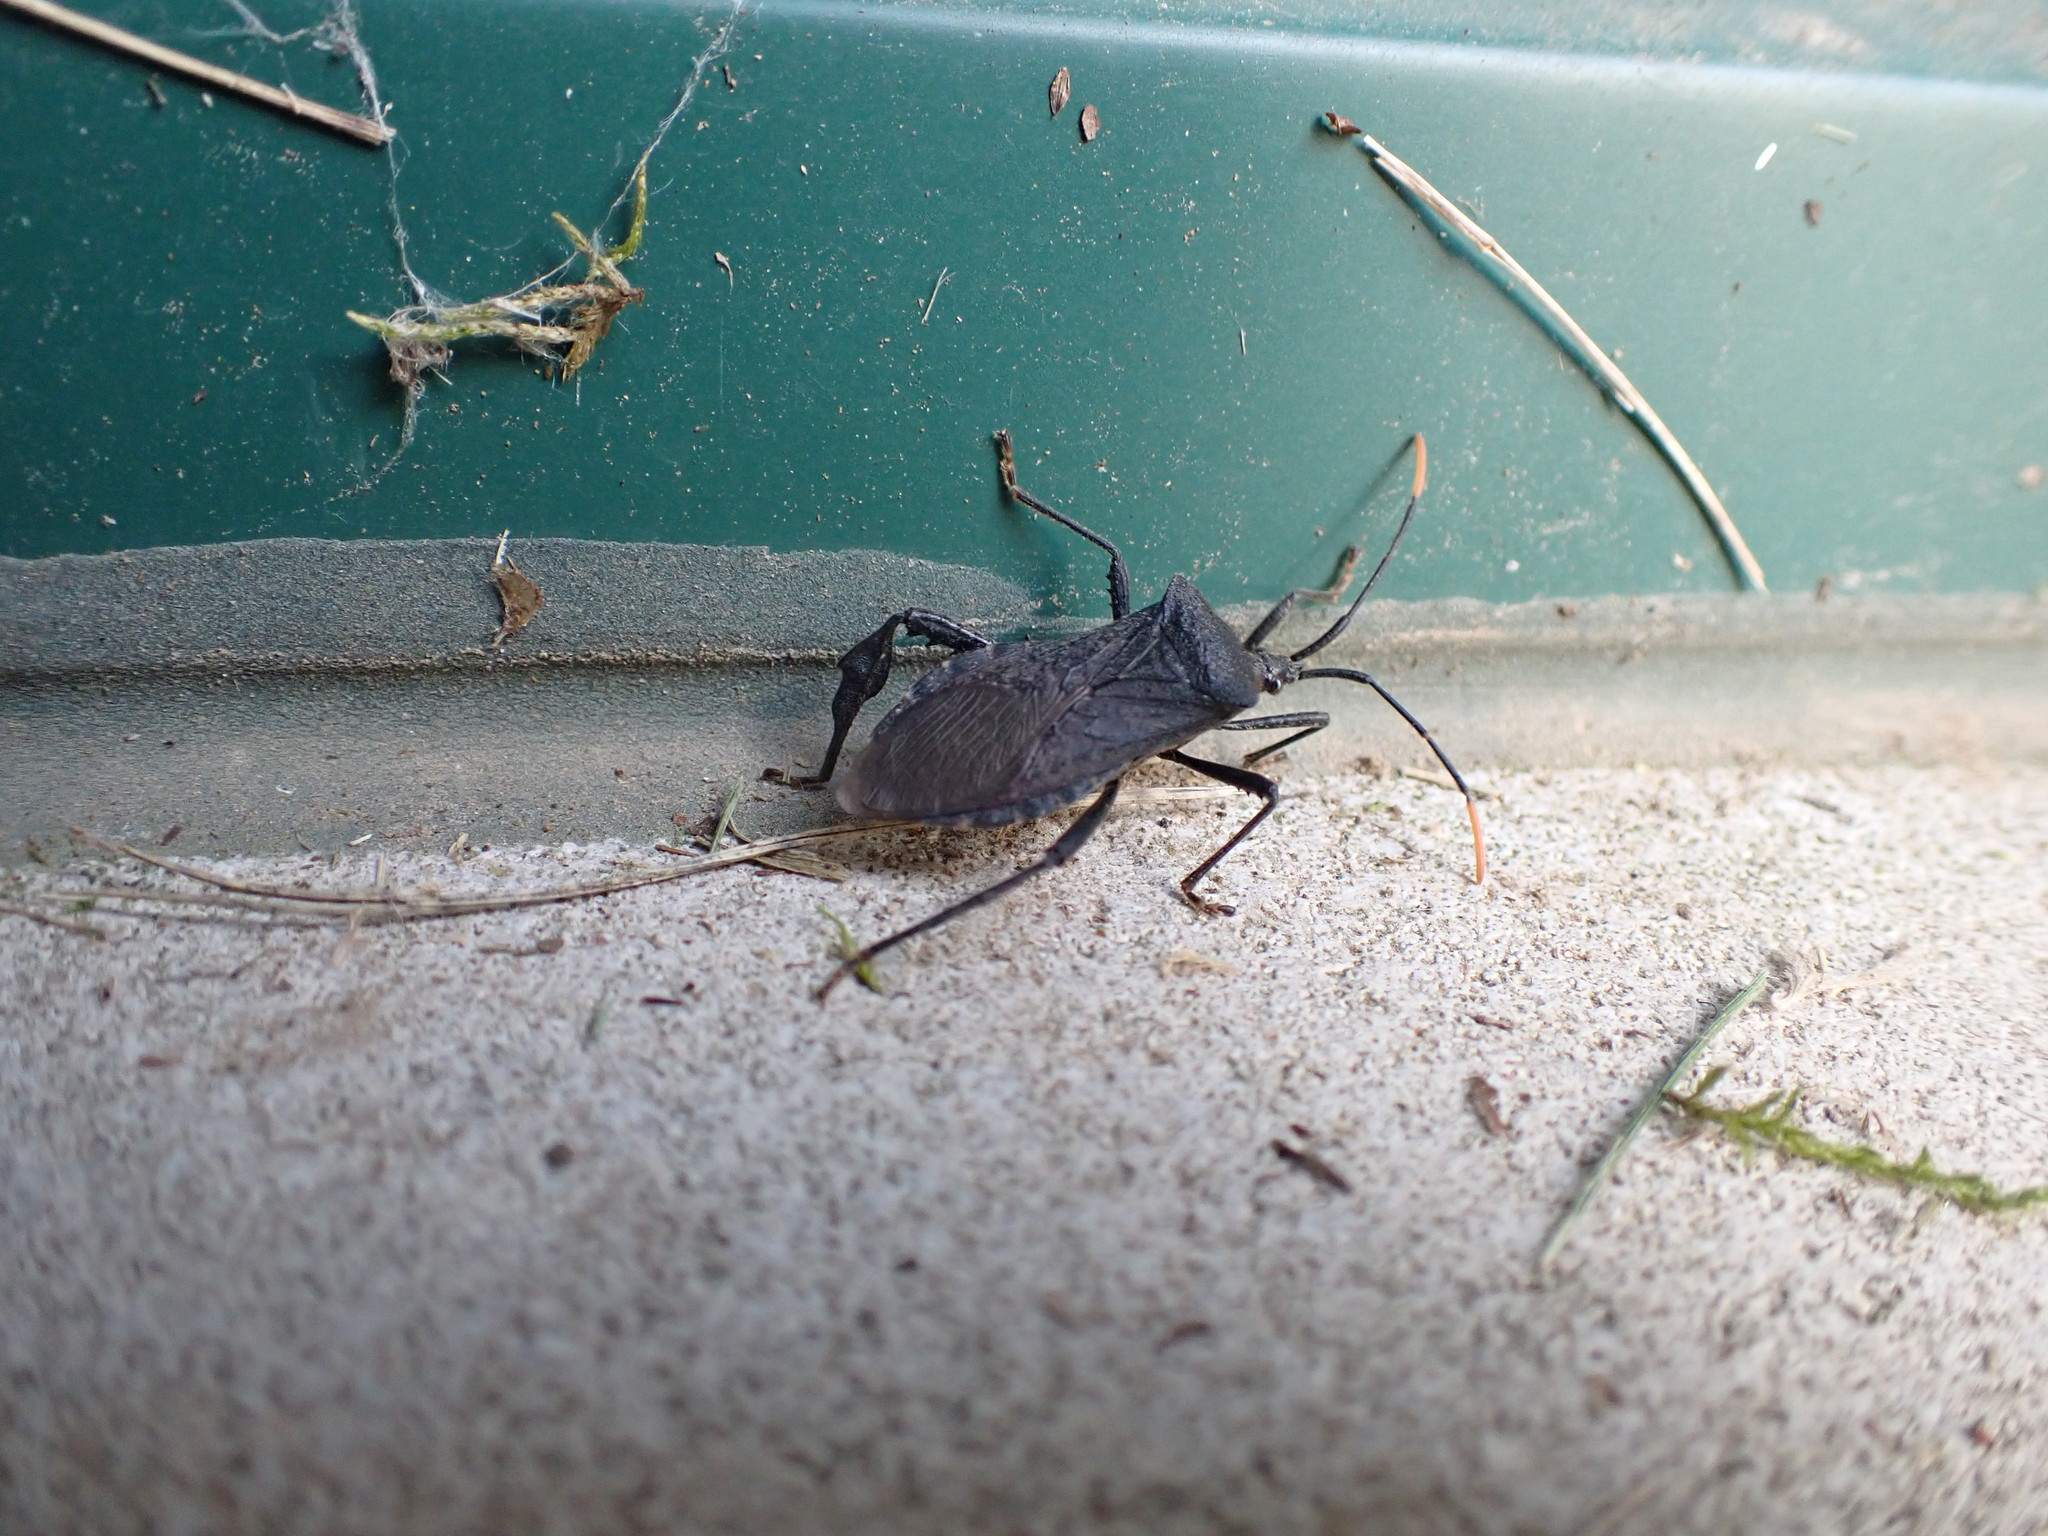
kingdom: Animalia
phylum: Arthropoda
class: Insecta
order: Hemiptera
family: Coreidae
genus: Acanthocephala
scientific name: Acanthocephala terminalis
